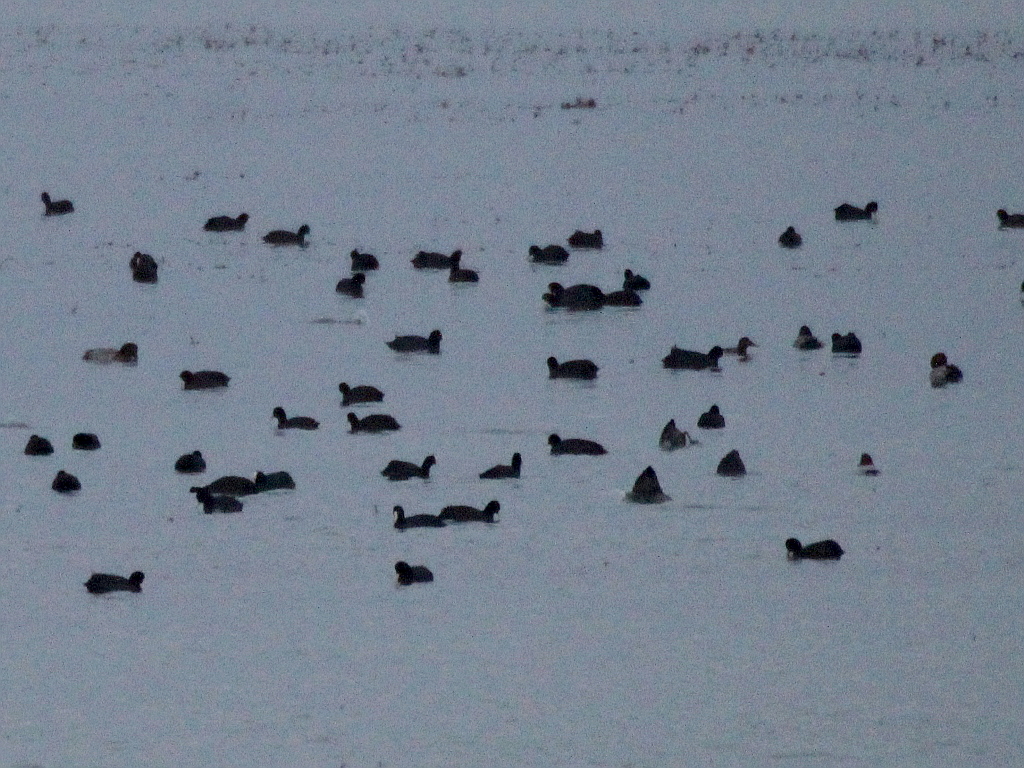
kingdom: Animalia
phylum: Chordata
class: Aves
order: Gruiformes
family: Rallidae
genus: Fulica
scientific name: Fulica atra
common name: Eurasian coot
